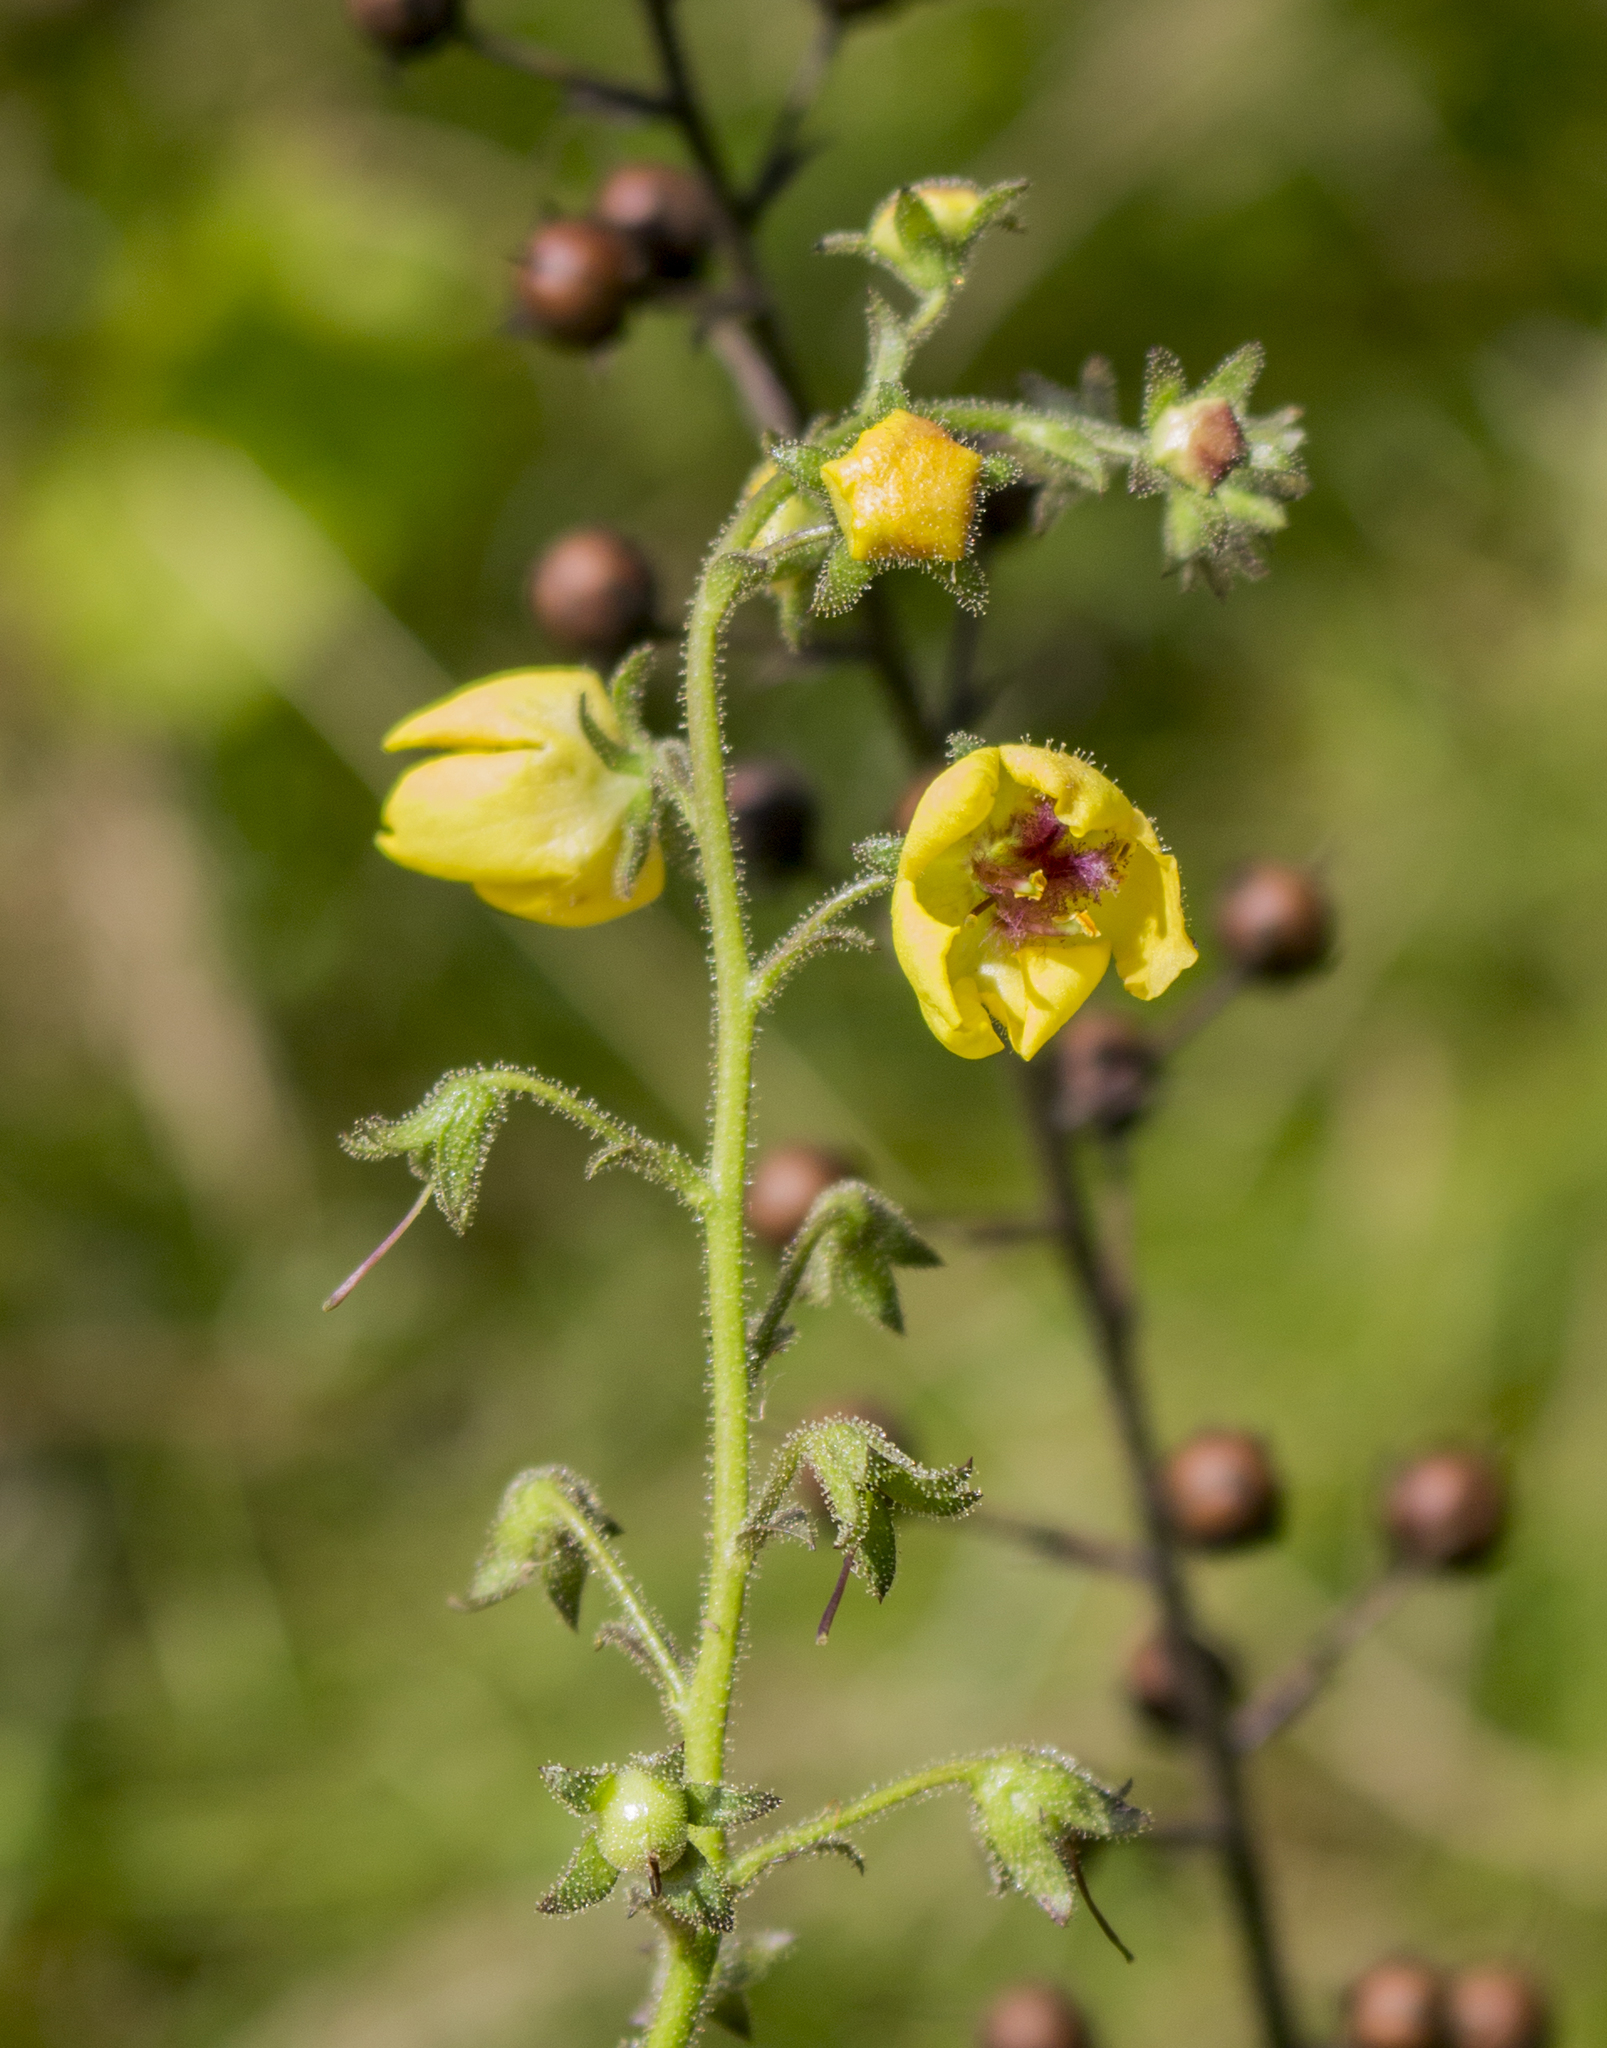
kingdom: Plantae
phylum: Tracheophyta
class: Magnoliopsida
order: Lamiales
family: Scrophulariaceae
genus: Verbascum
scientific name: Verbascum blattaria
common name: Moth mullein
